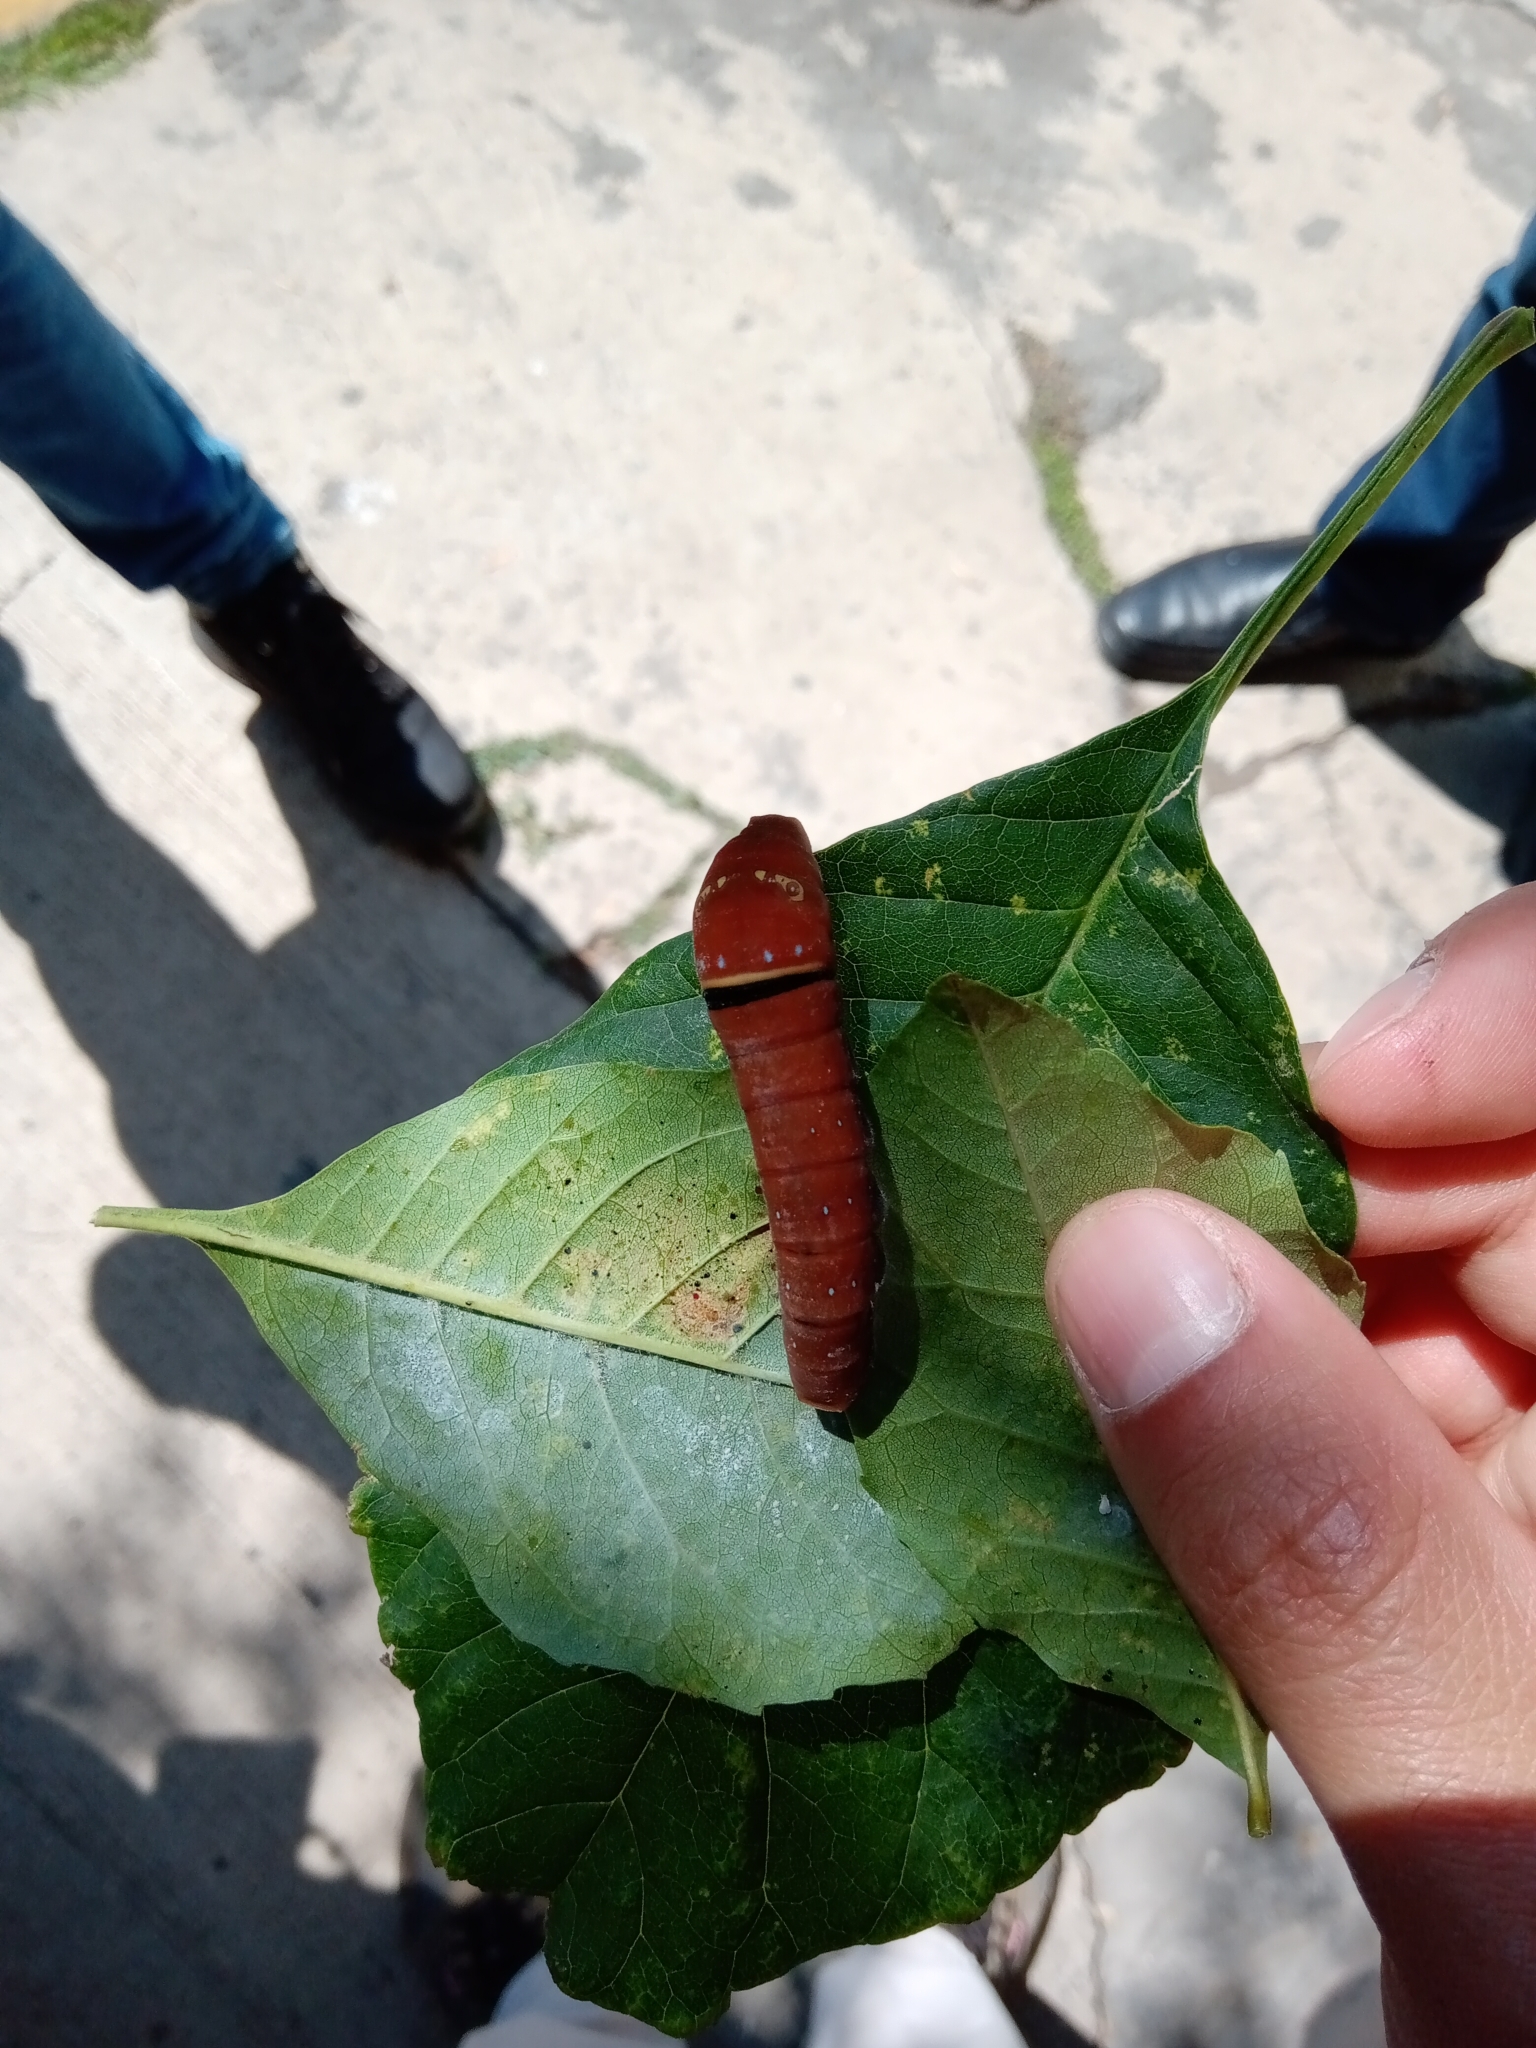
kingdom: Animalia
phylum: Arthropoda
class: Insecta
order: Lepidoptera
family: Papilionidae
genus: Papilio
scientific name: Papilio multicaudata
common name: Two-tailed tiger swallowtail
